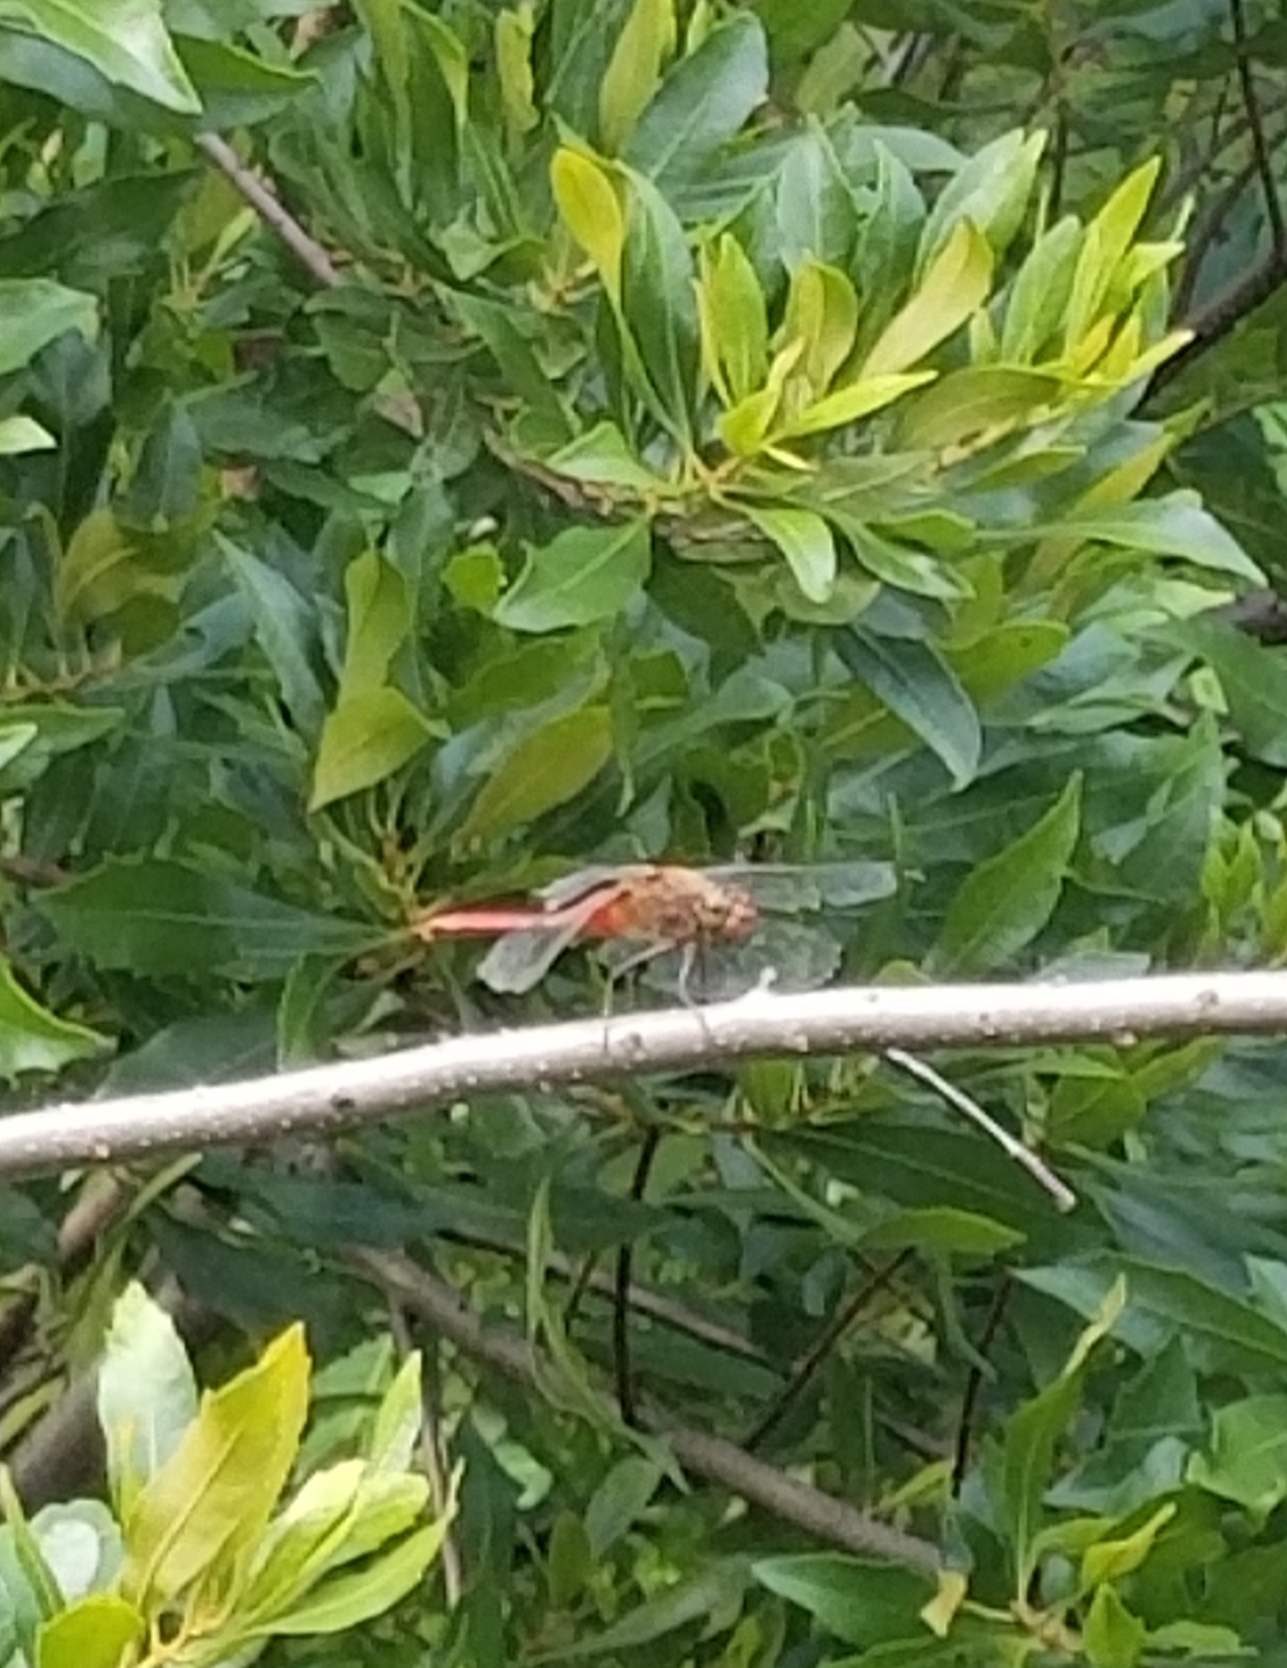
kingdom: Animalia
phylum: Arthropoda
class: Insecta
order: Odonata
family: Libellulidae
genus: Brachymesia
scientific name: Brachymesia furcata
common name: Red-taled pennant
